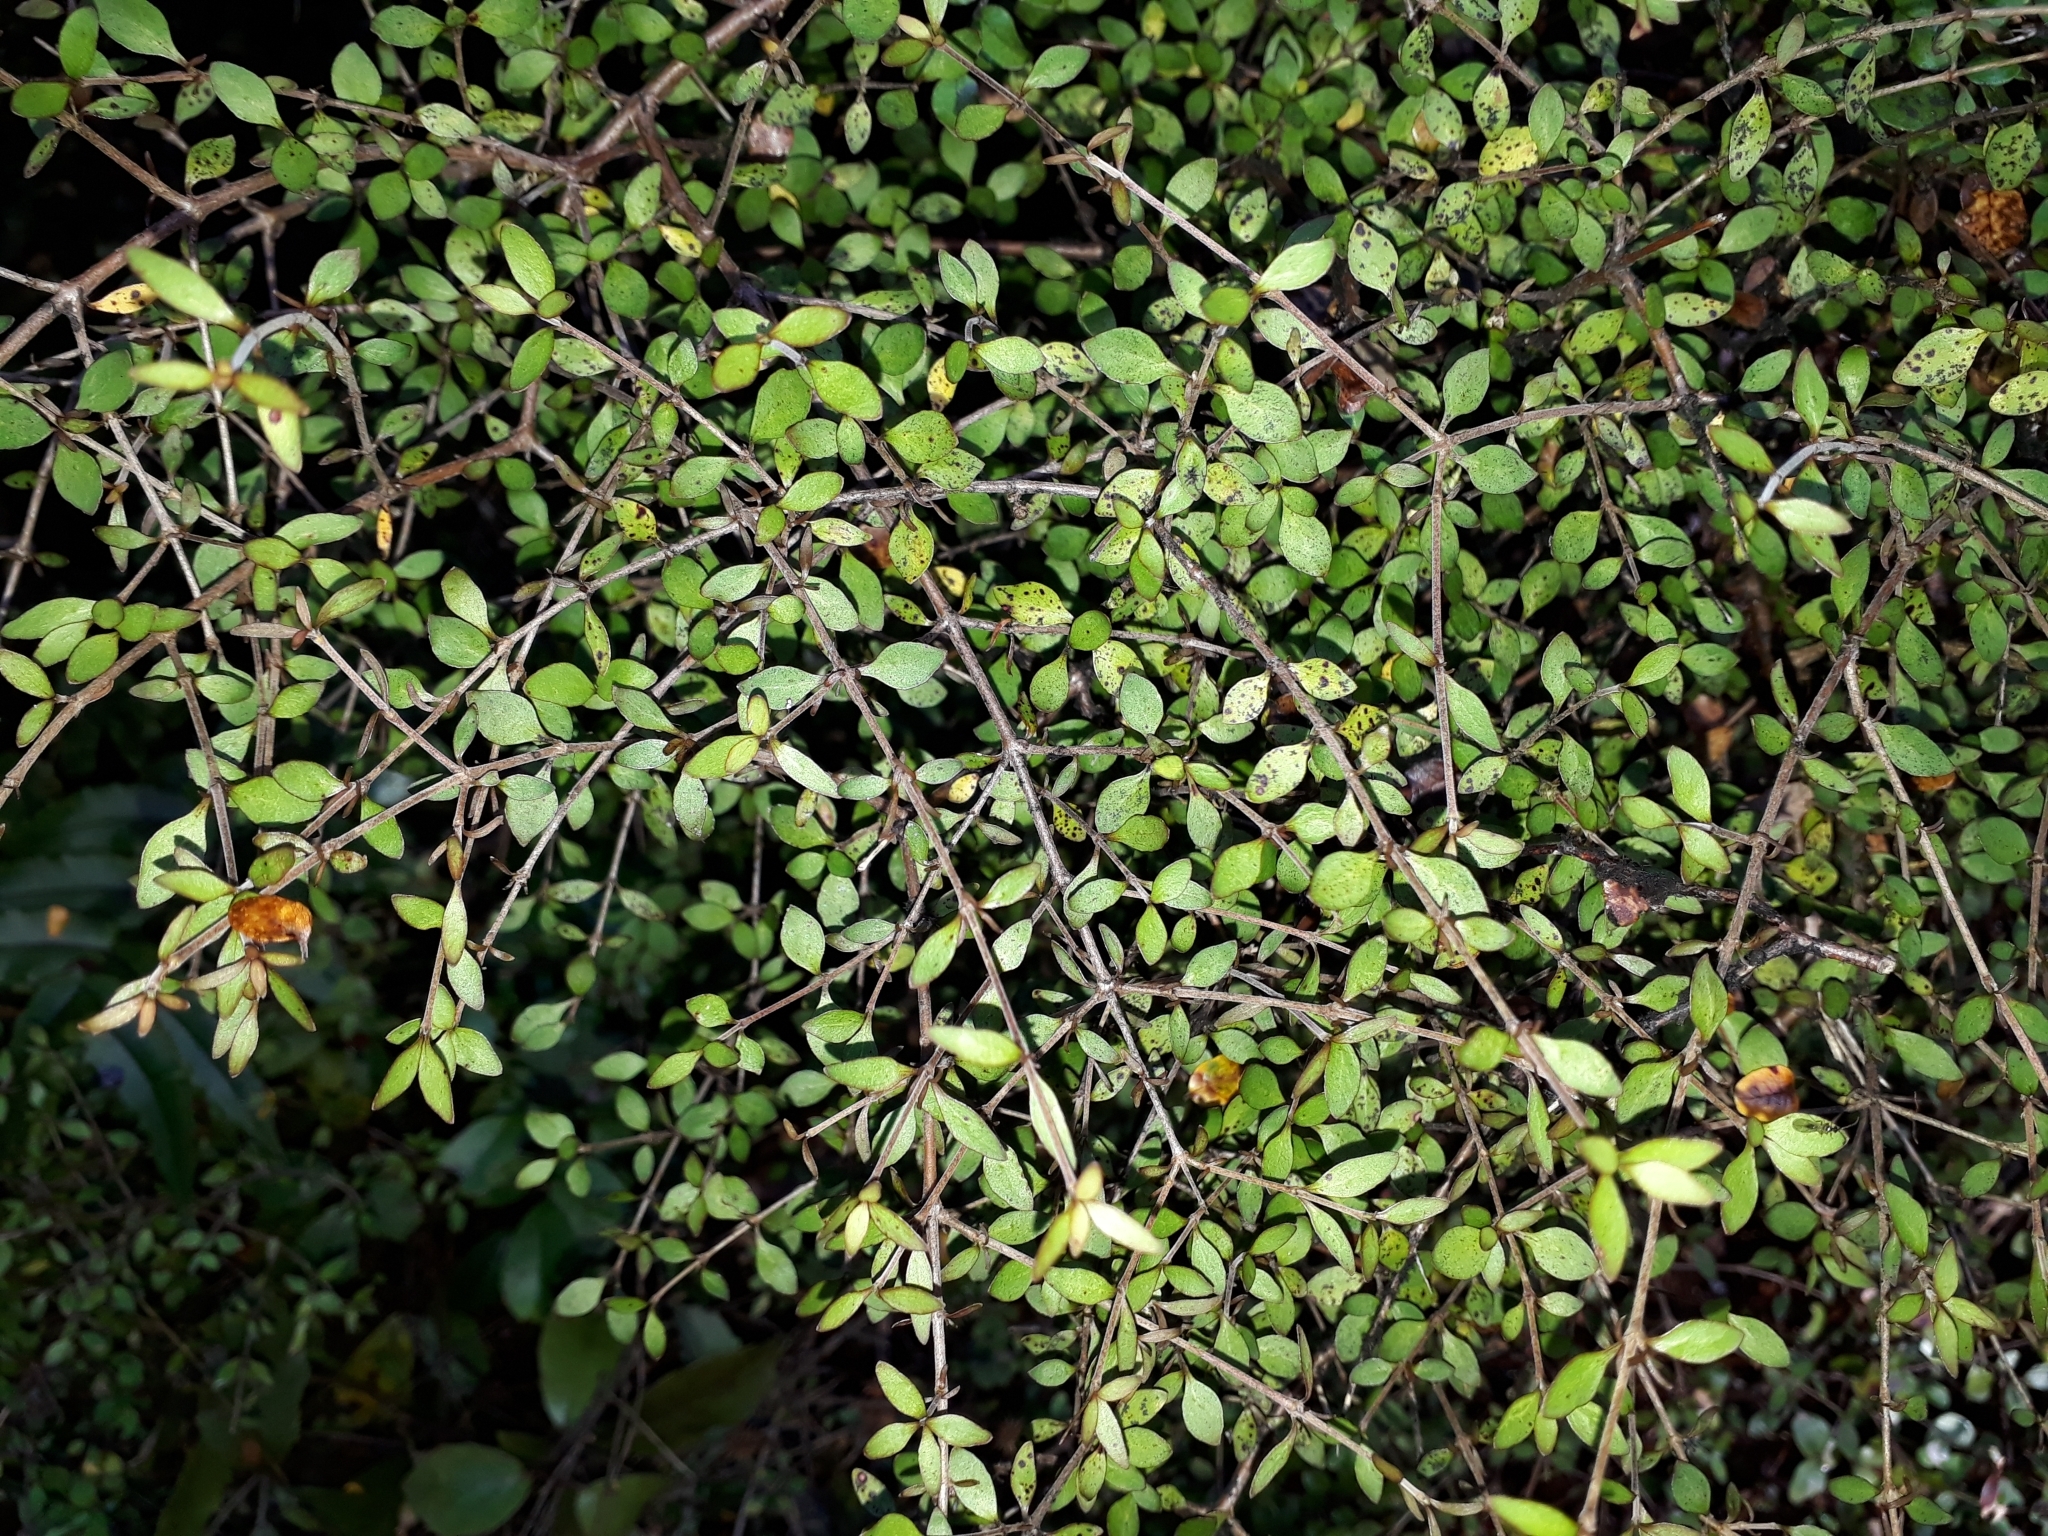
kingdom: Plantae
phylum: Tracheophyta
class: Magnoliopsida
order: Gentianales
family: Rubiaceae
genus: Coprosma
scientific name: Coprosma rhamnoides
